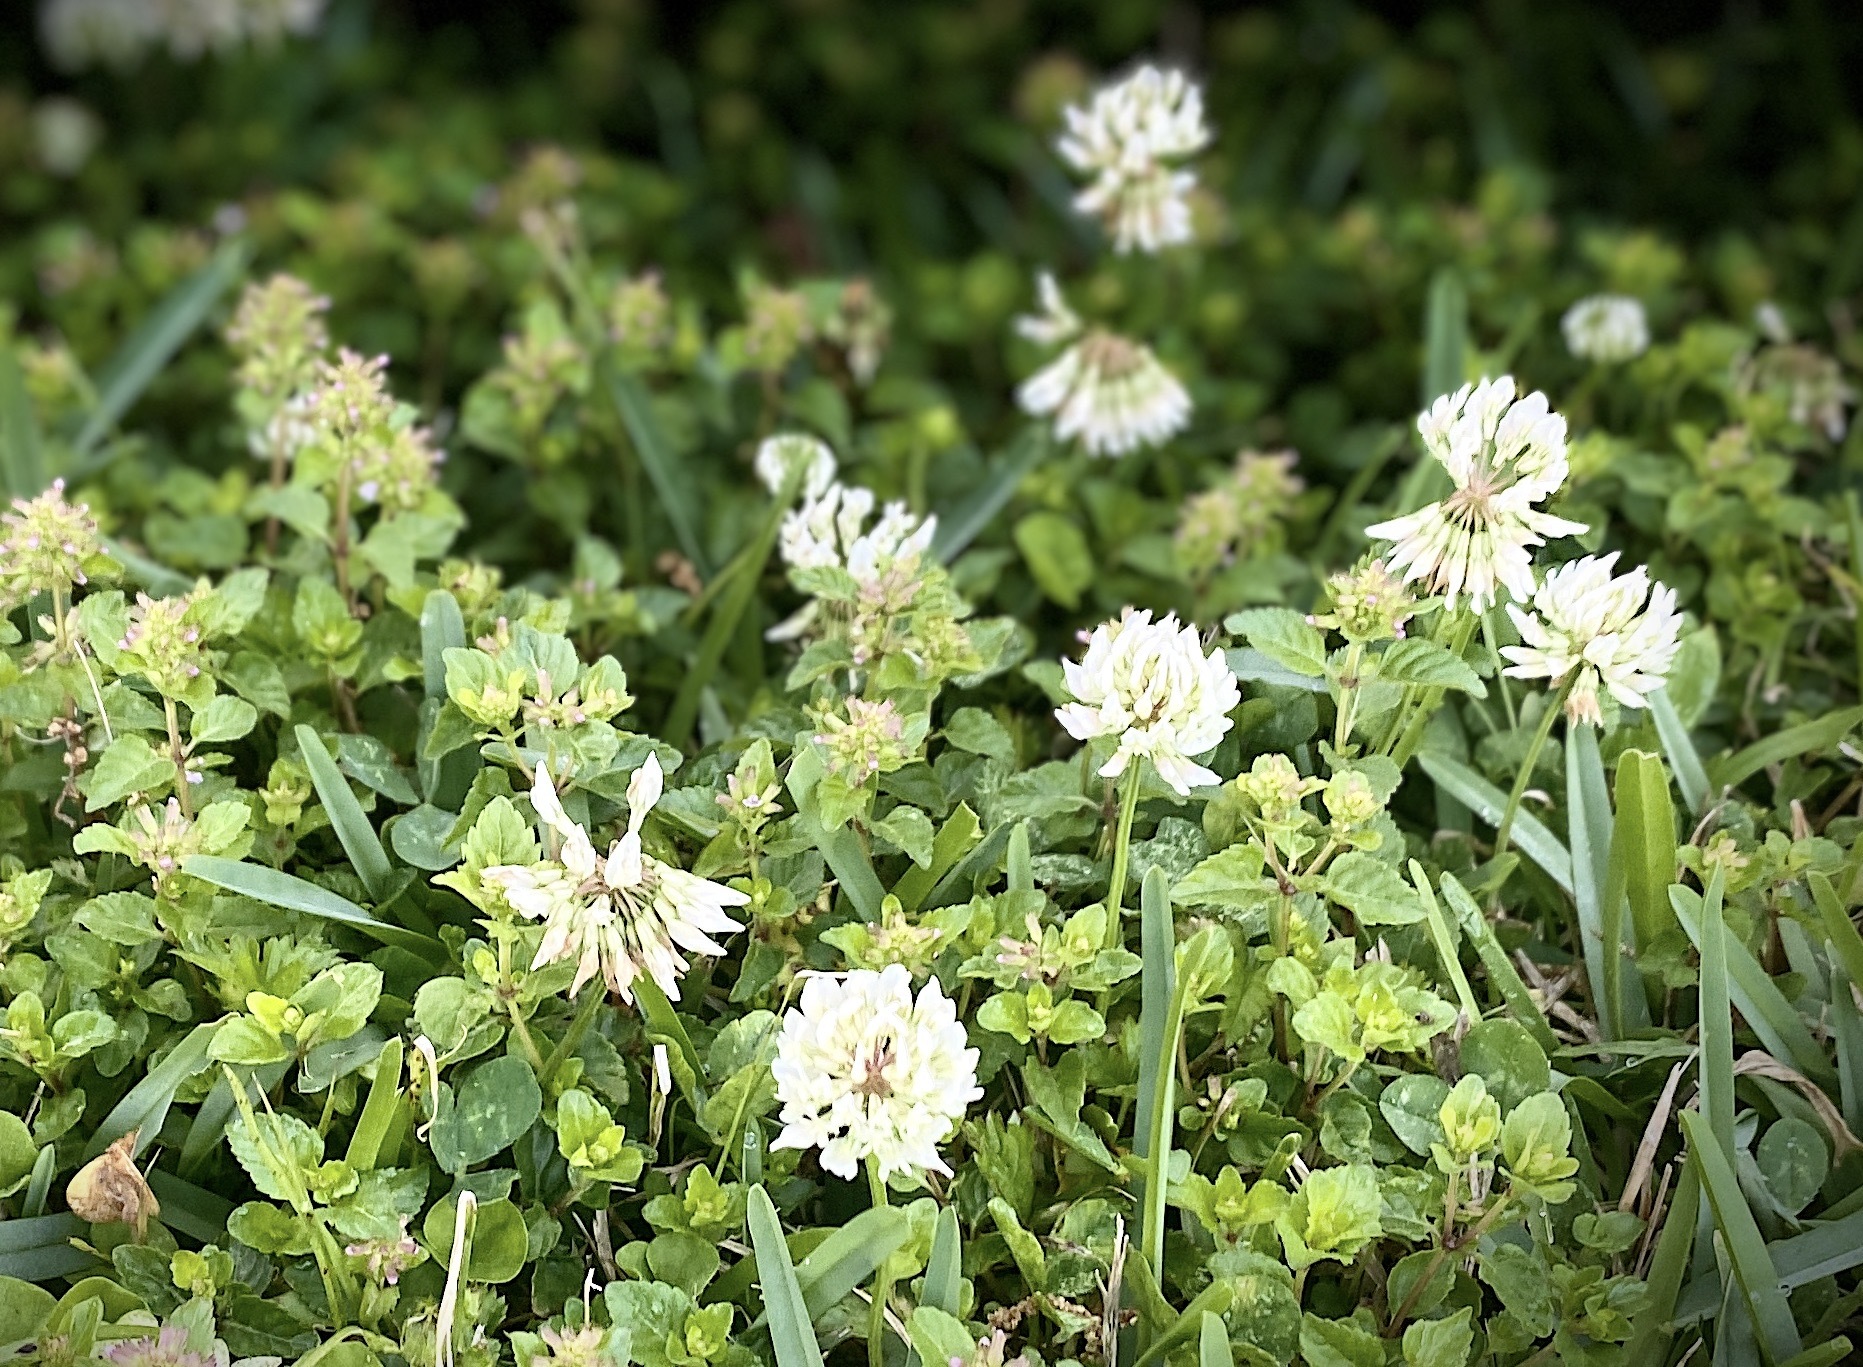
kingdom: Plantae
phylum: Tracheophyta
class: Magnoliopsida
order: Fabales
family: Fabaceae
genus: Trifolium
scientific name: Trifolium repens
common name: White clover
